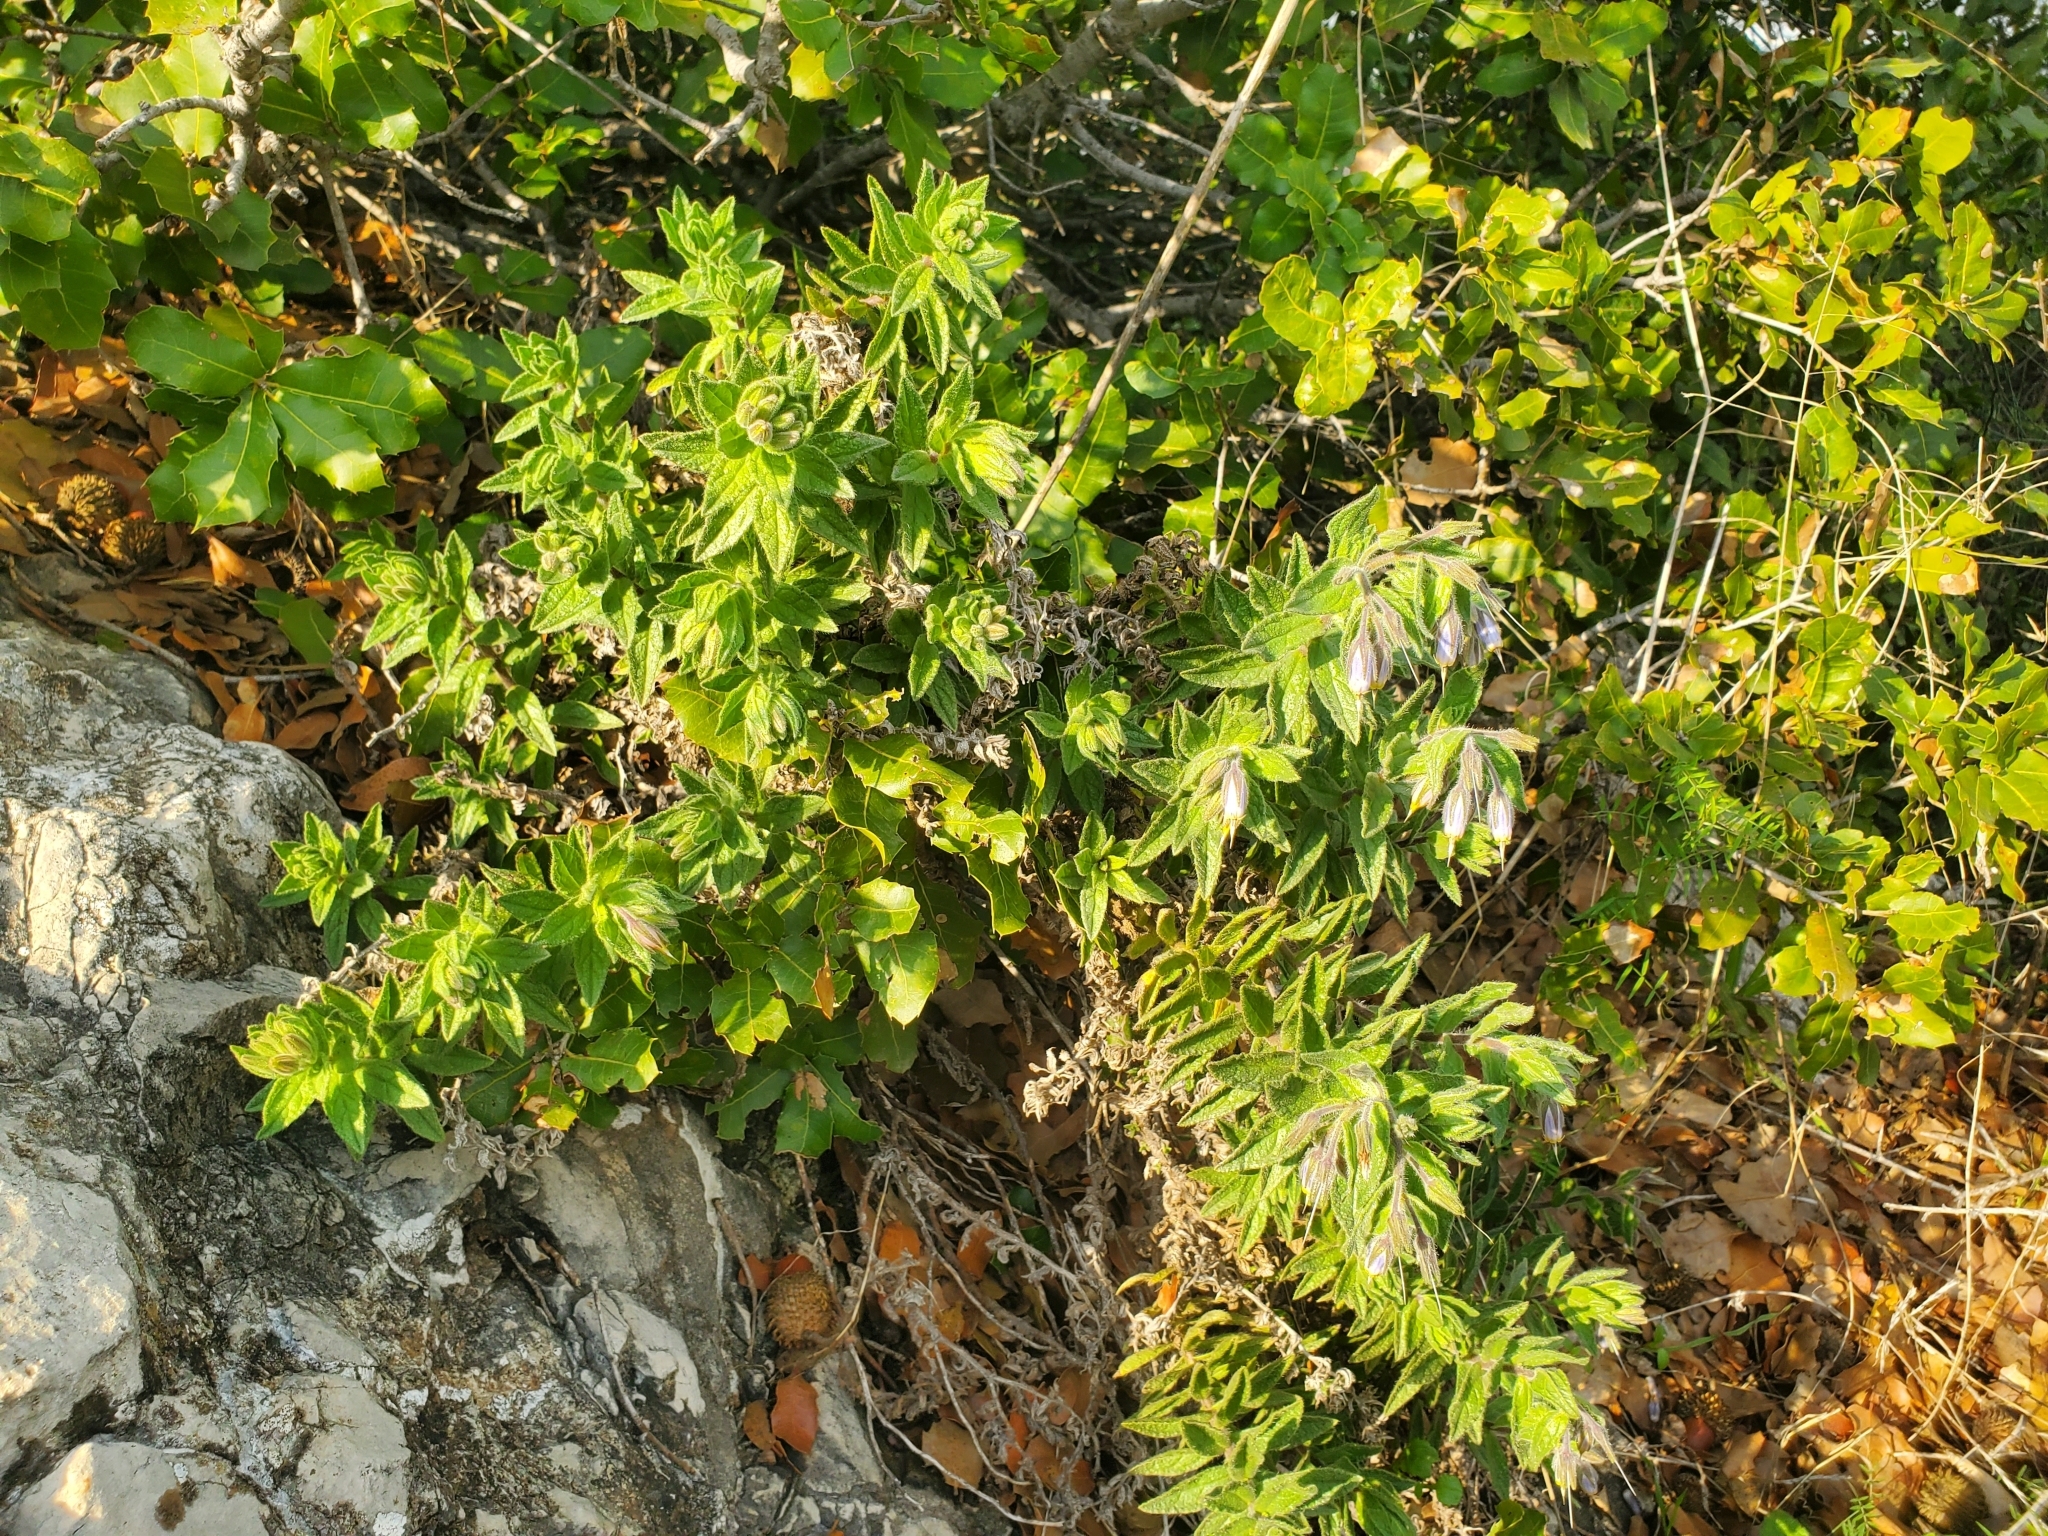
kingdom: Plantae
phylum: Tracheophyta
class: Magnoliopsida
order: Boraginales
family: Boraginaceae
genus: Podonosma
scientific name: Podonosma orientalis
